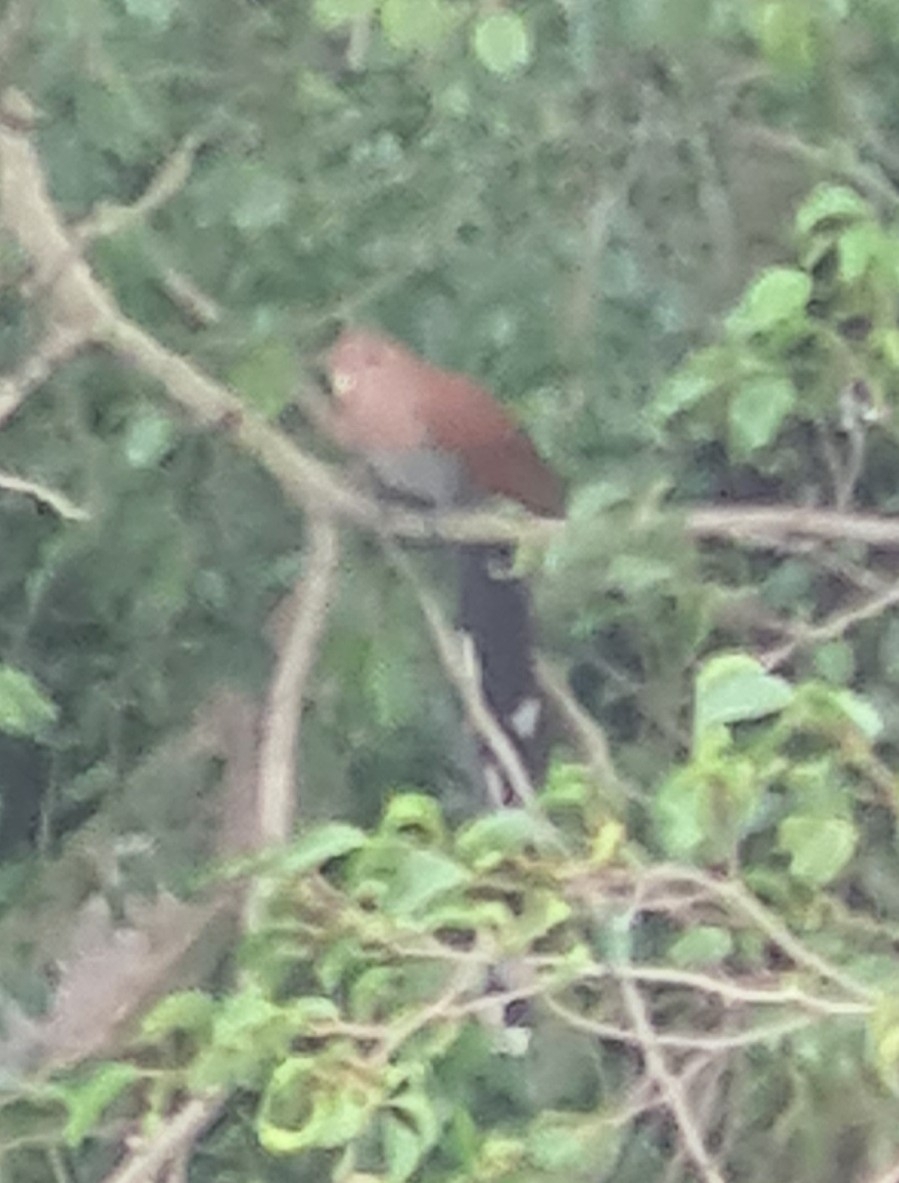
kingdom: Animalia
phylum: Chordata
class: Aves
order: Cuculiformes
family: Cuculidae
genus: Piaya
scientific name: Piaya cayana
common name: Squirrel cuckoo
